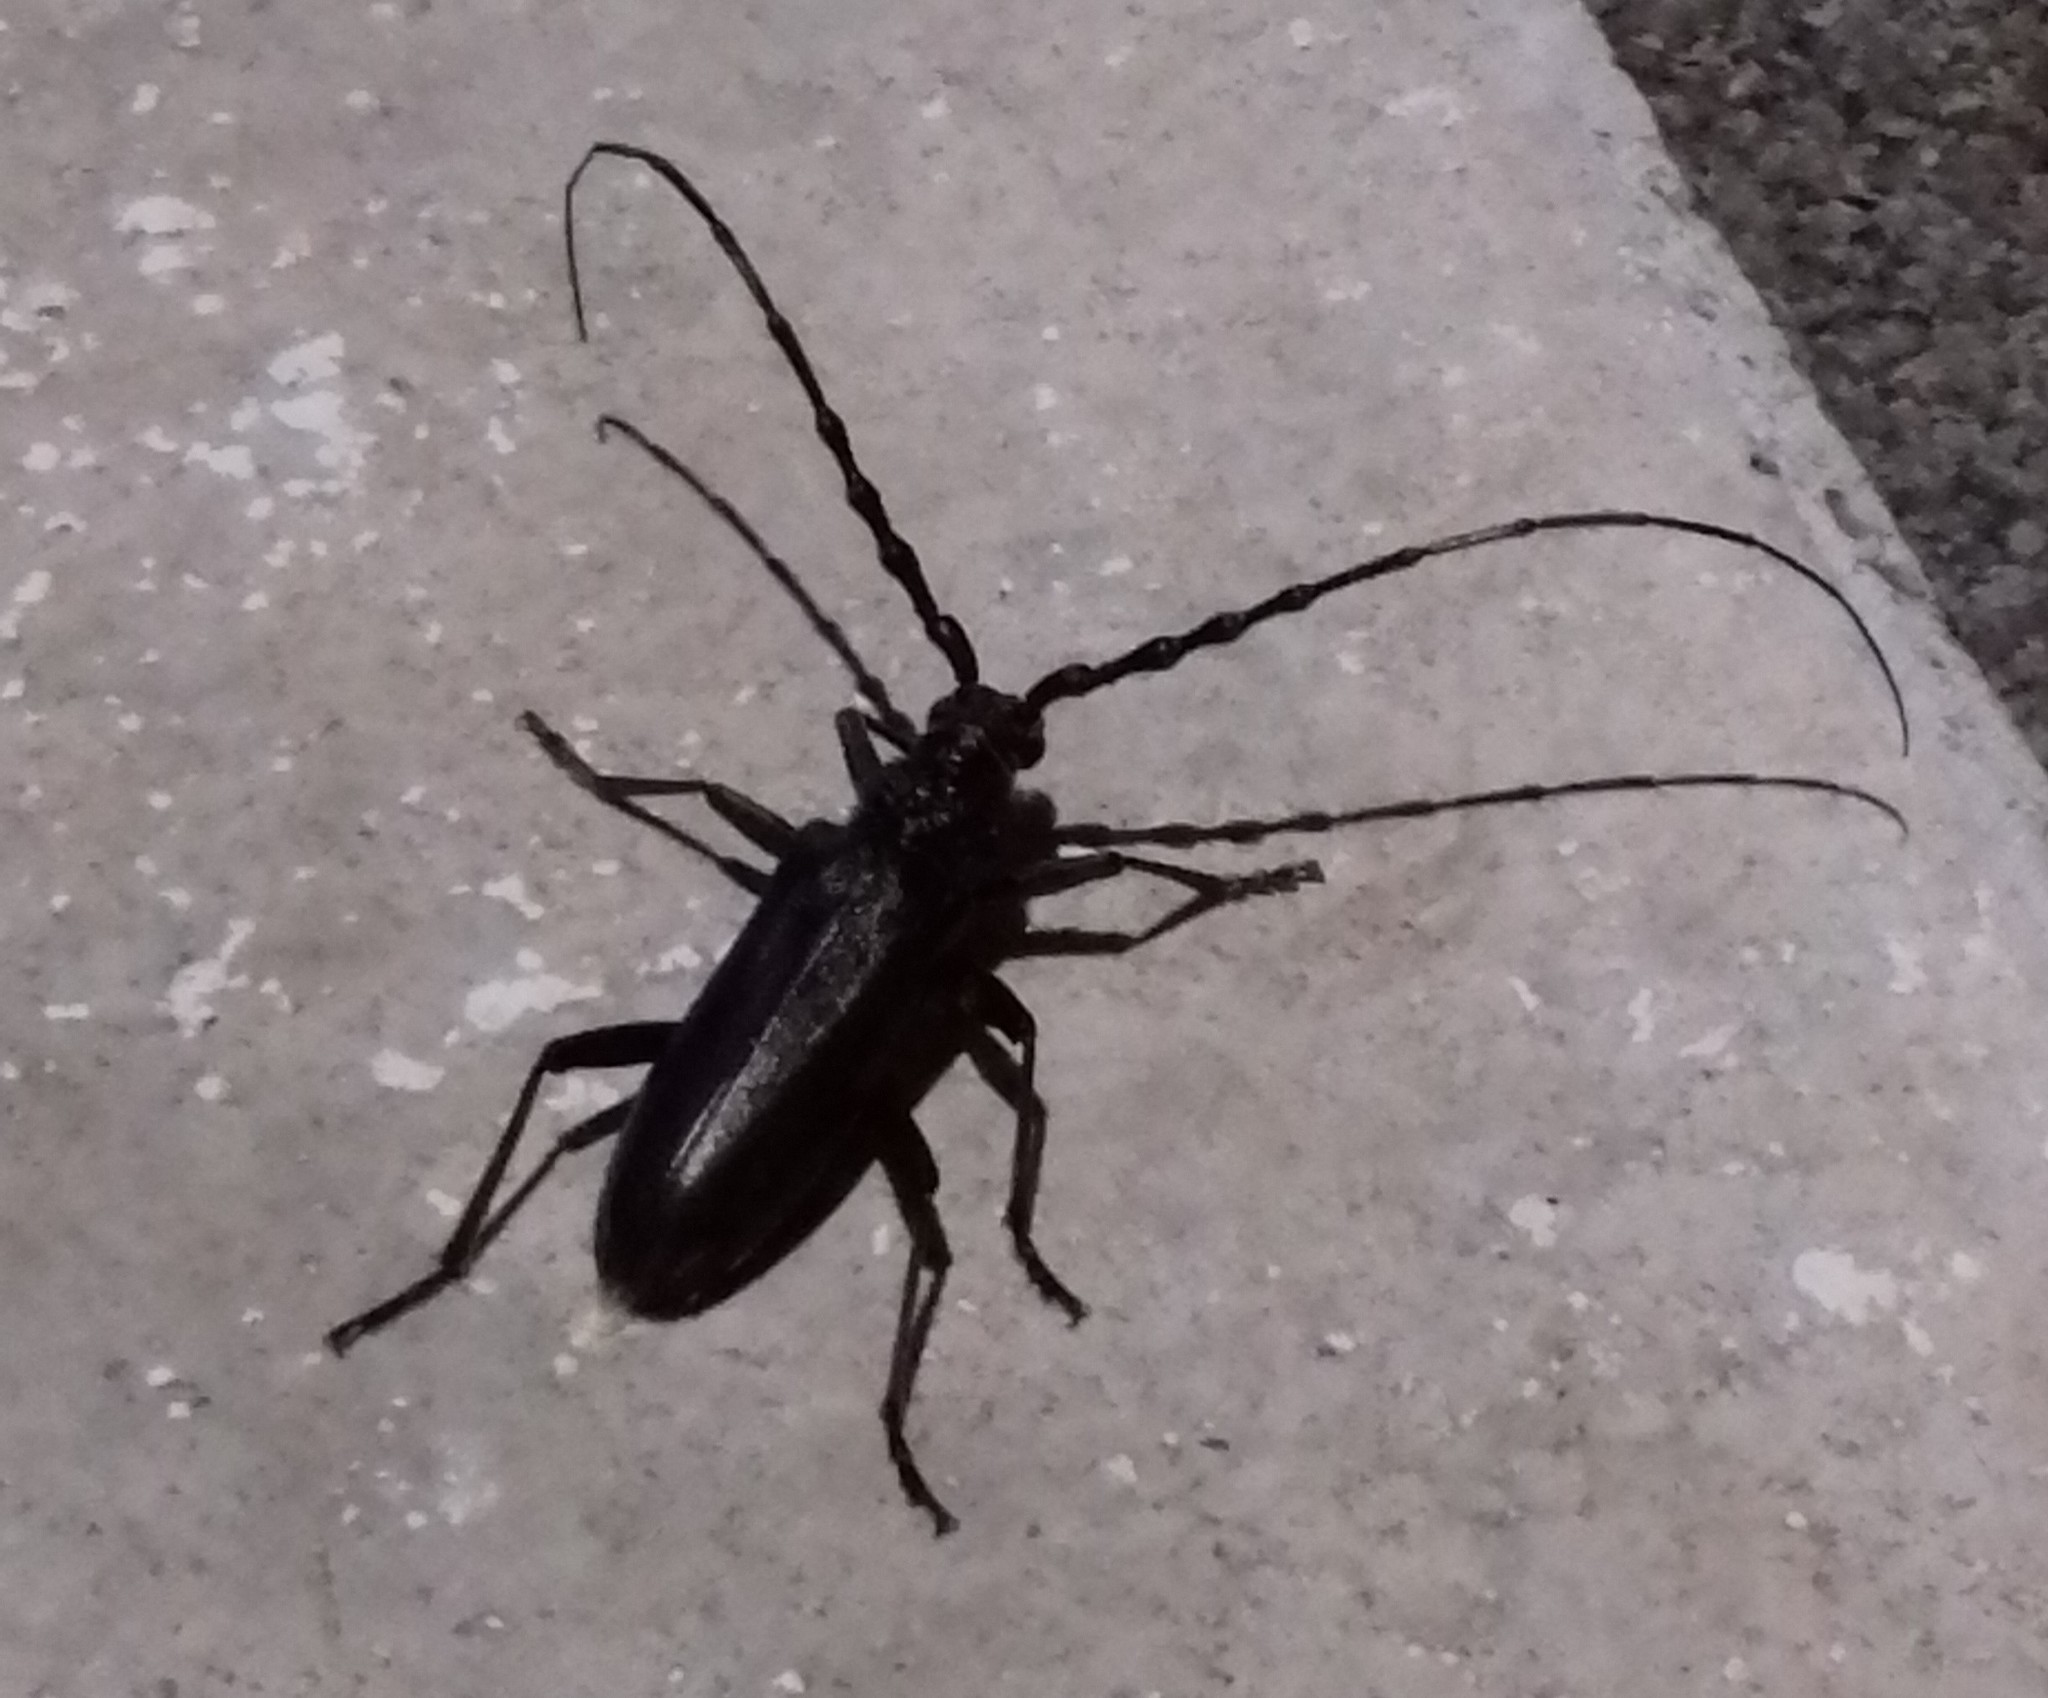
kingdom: Animalia
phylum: Arthropoda
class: Insecta
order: Coleoptera
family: Cerambycidae
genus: Cerambyx
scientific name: Cerambyx welensii
